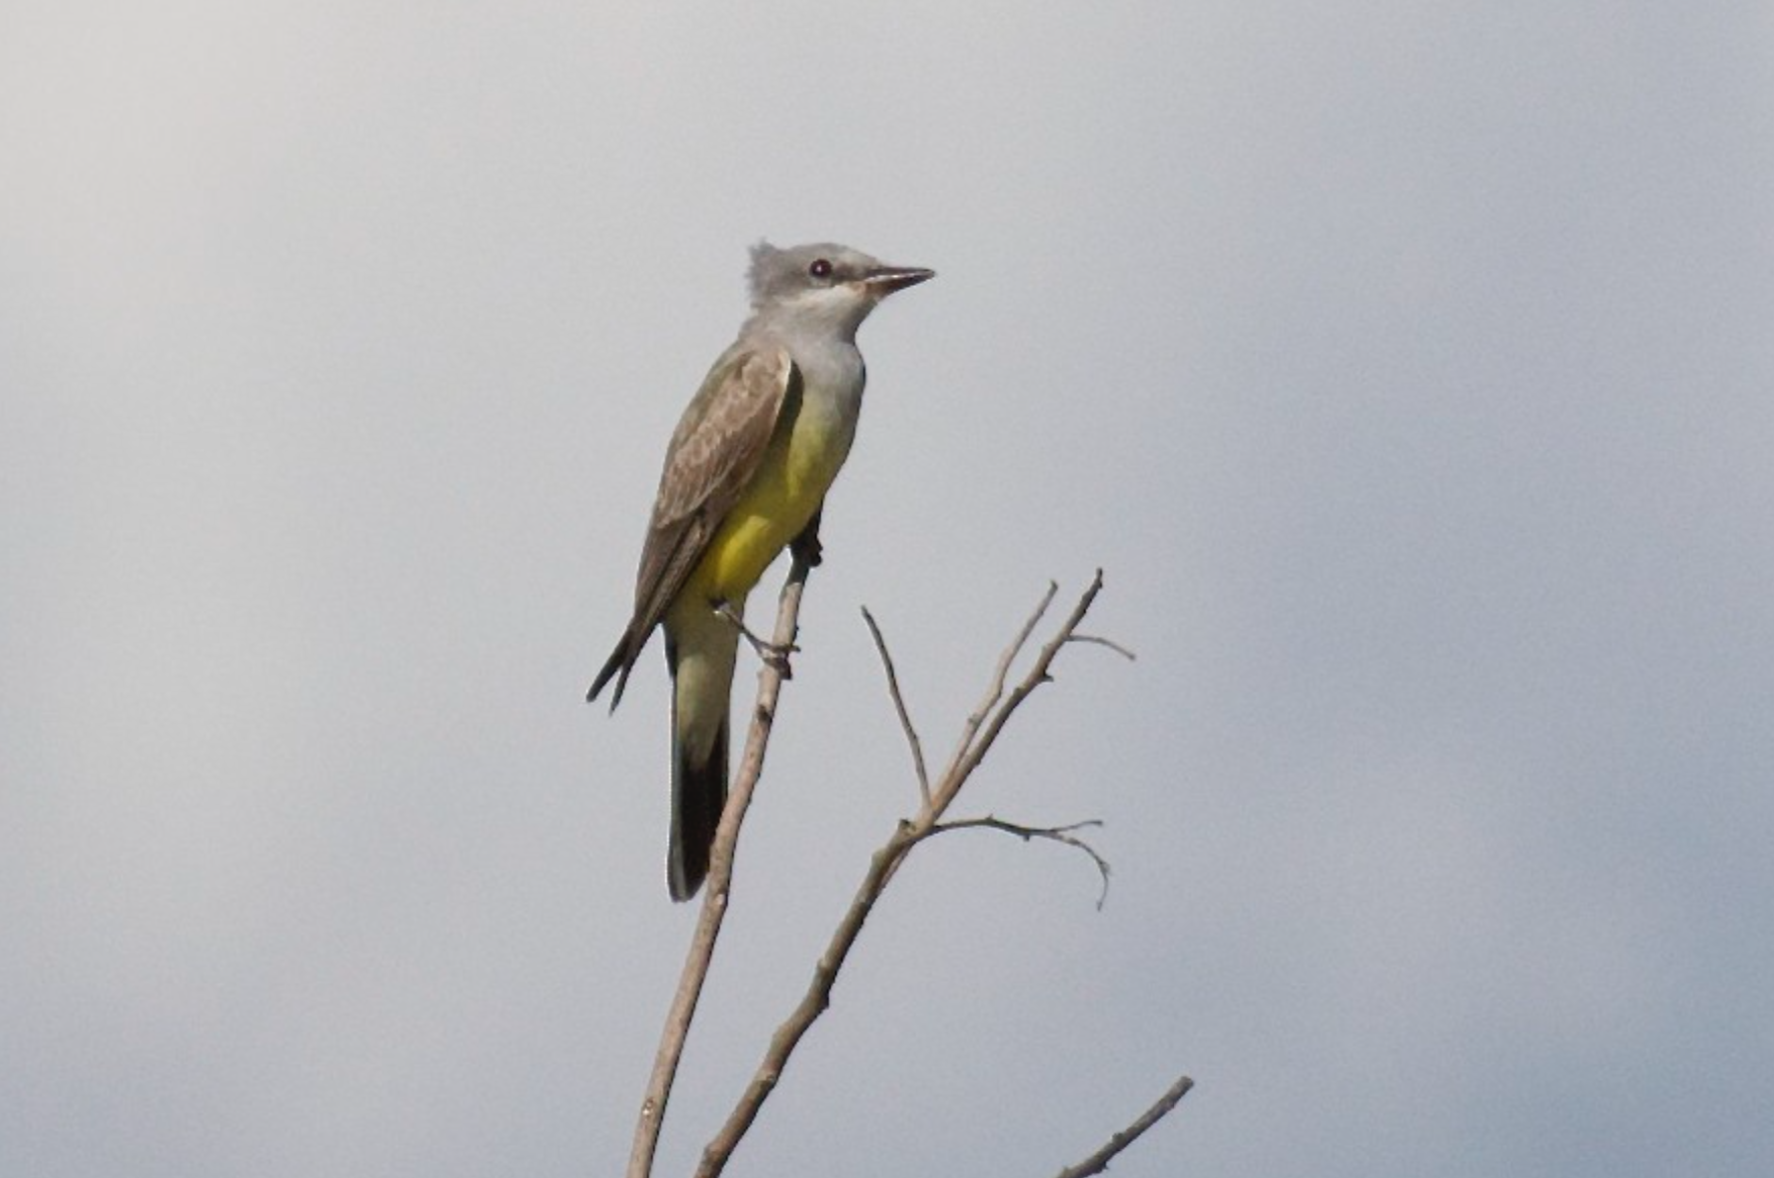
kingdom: Animalia
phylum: Chordata
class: Aves
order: Passeriformes
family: Tyrannidae
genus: Tyrannus
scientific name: Tyrannus verticalis
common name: Western kingbird
